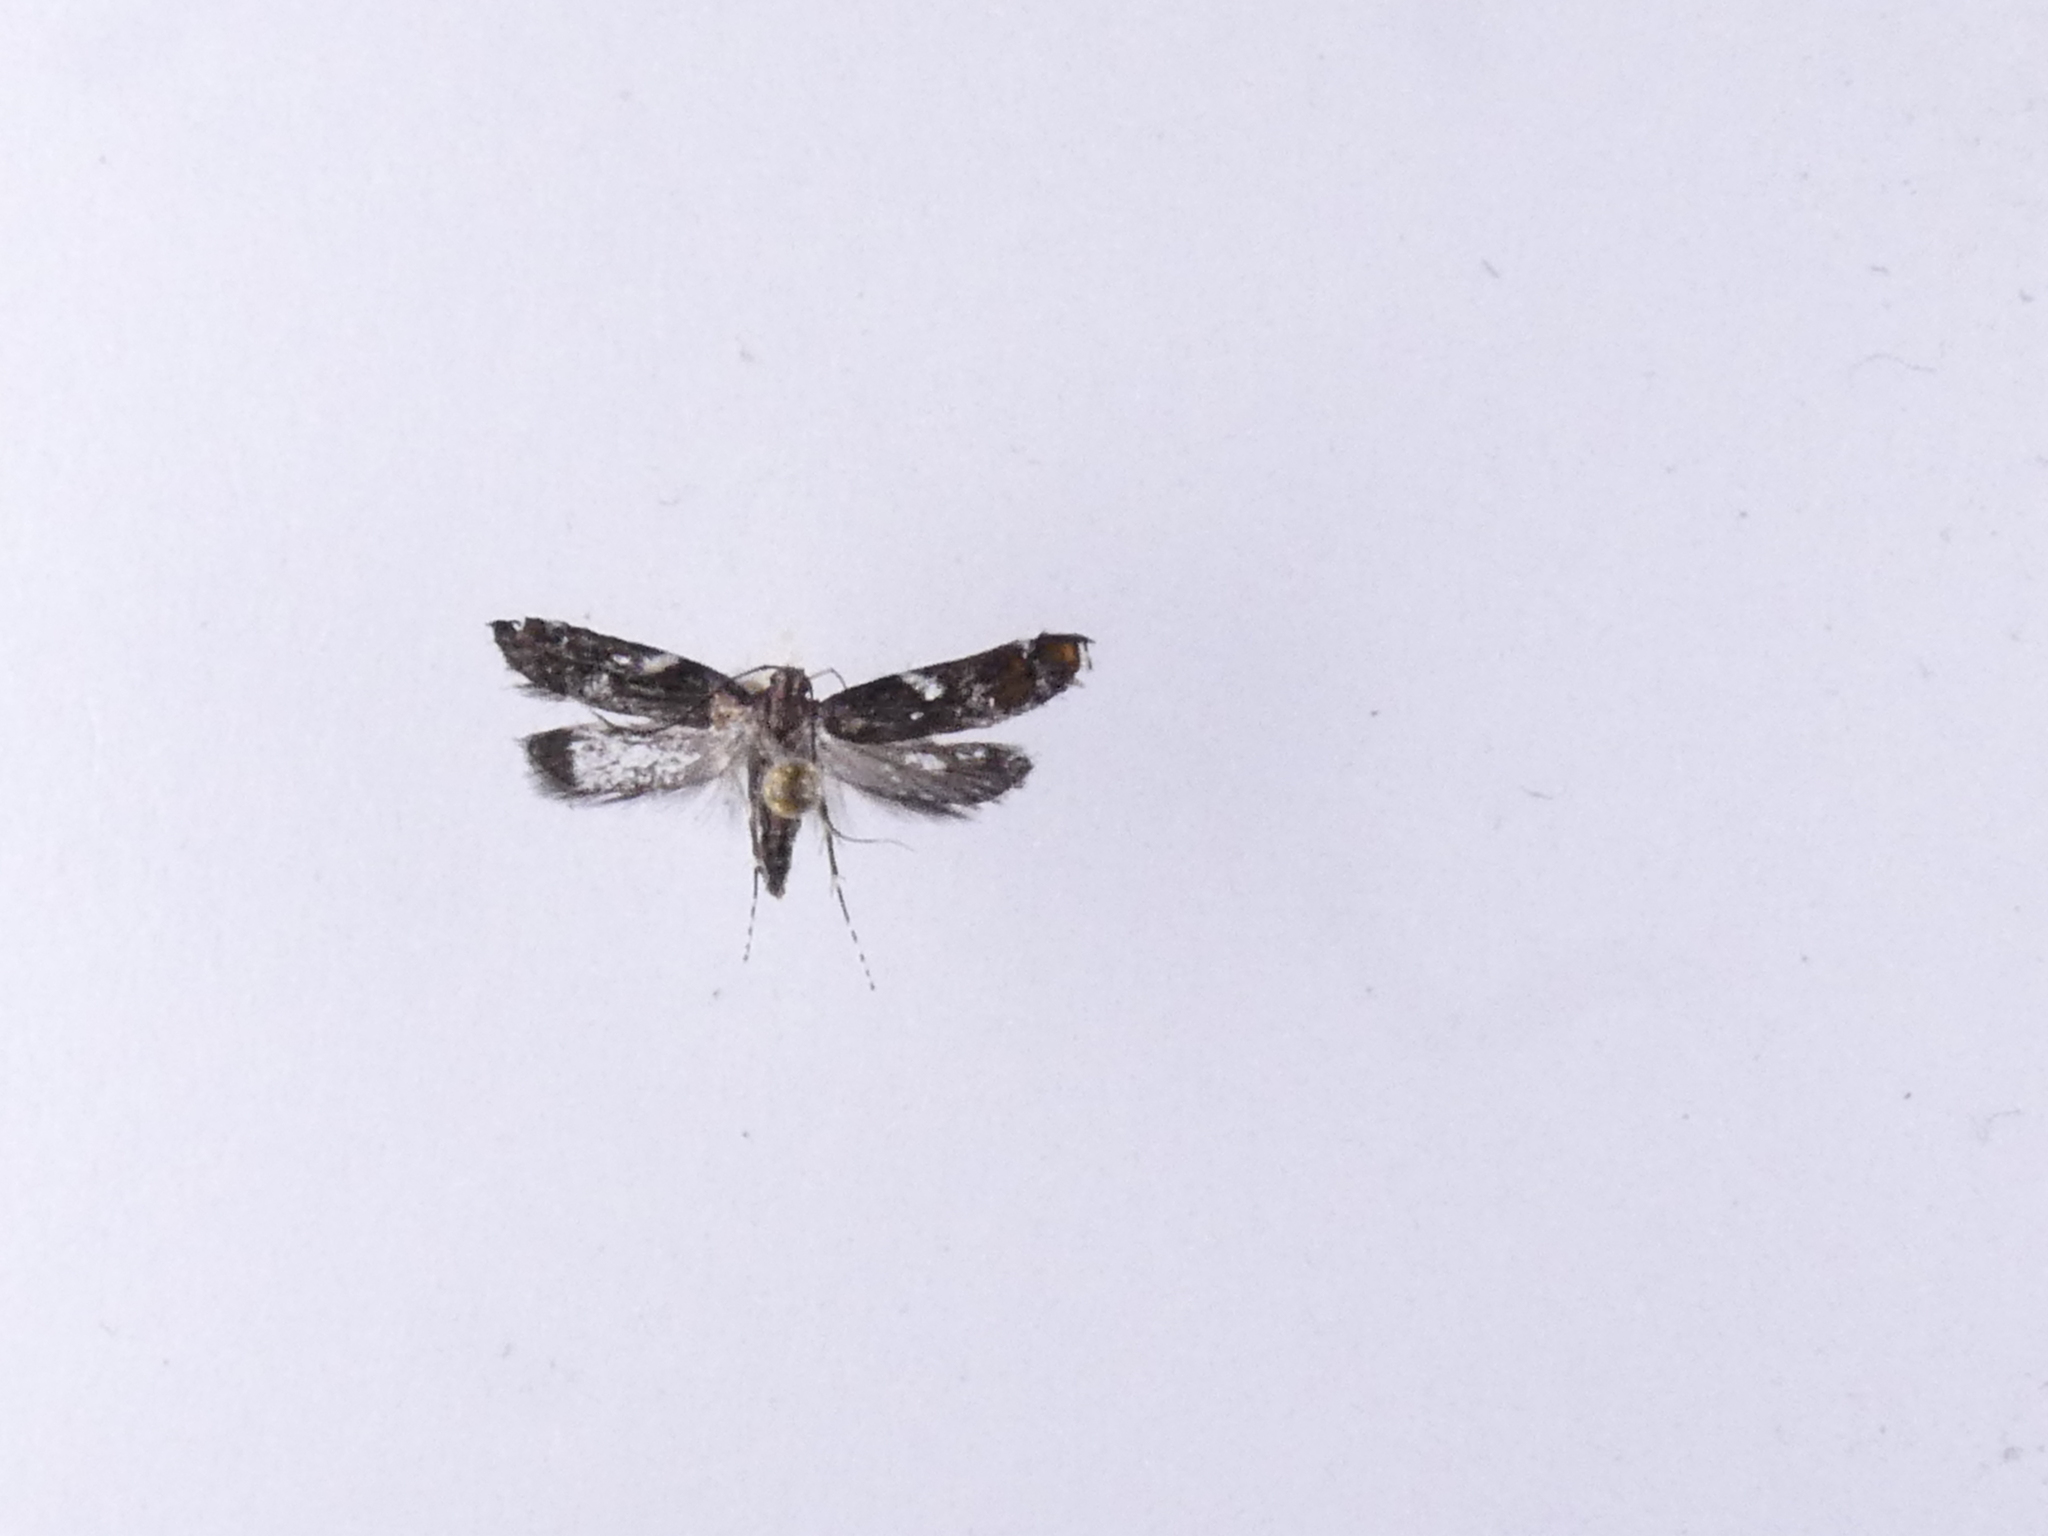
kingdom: Animalia
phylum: Arthropoda
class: Insecta
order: Lepidoptera
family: Depressariidae
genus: Compsistis
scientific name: Compsistis bifaciella
